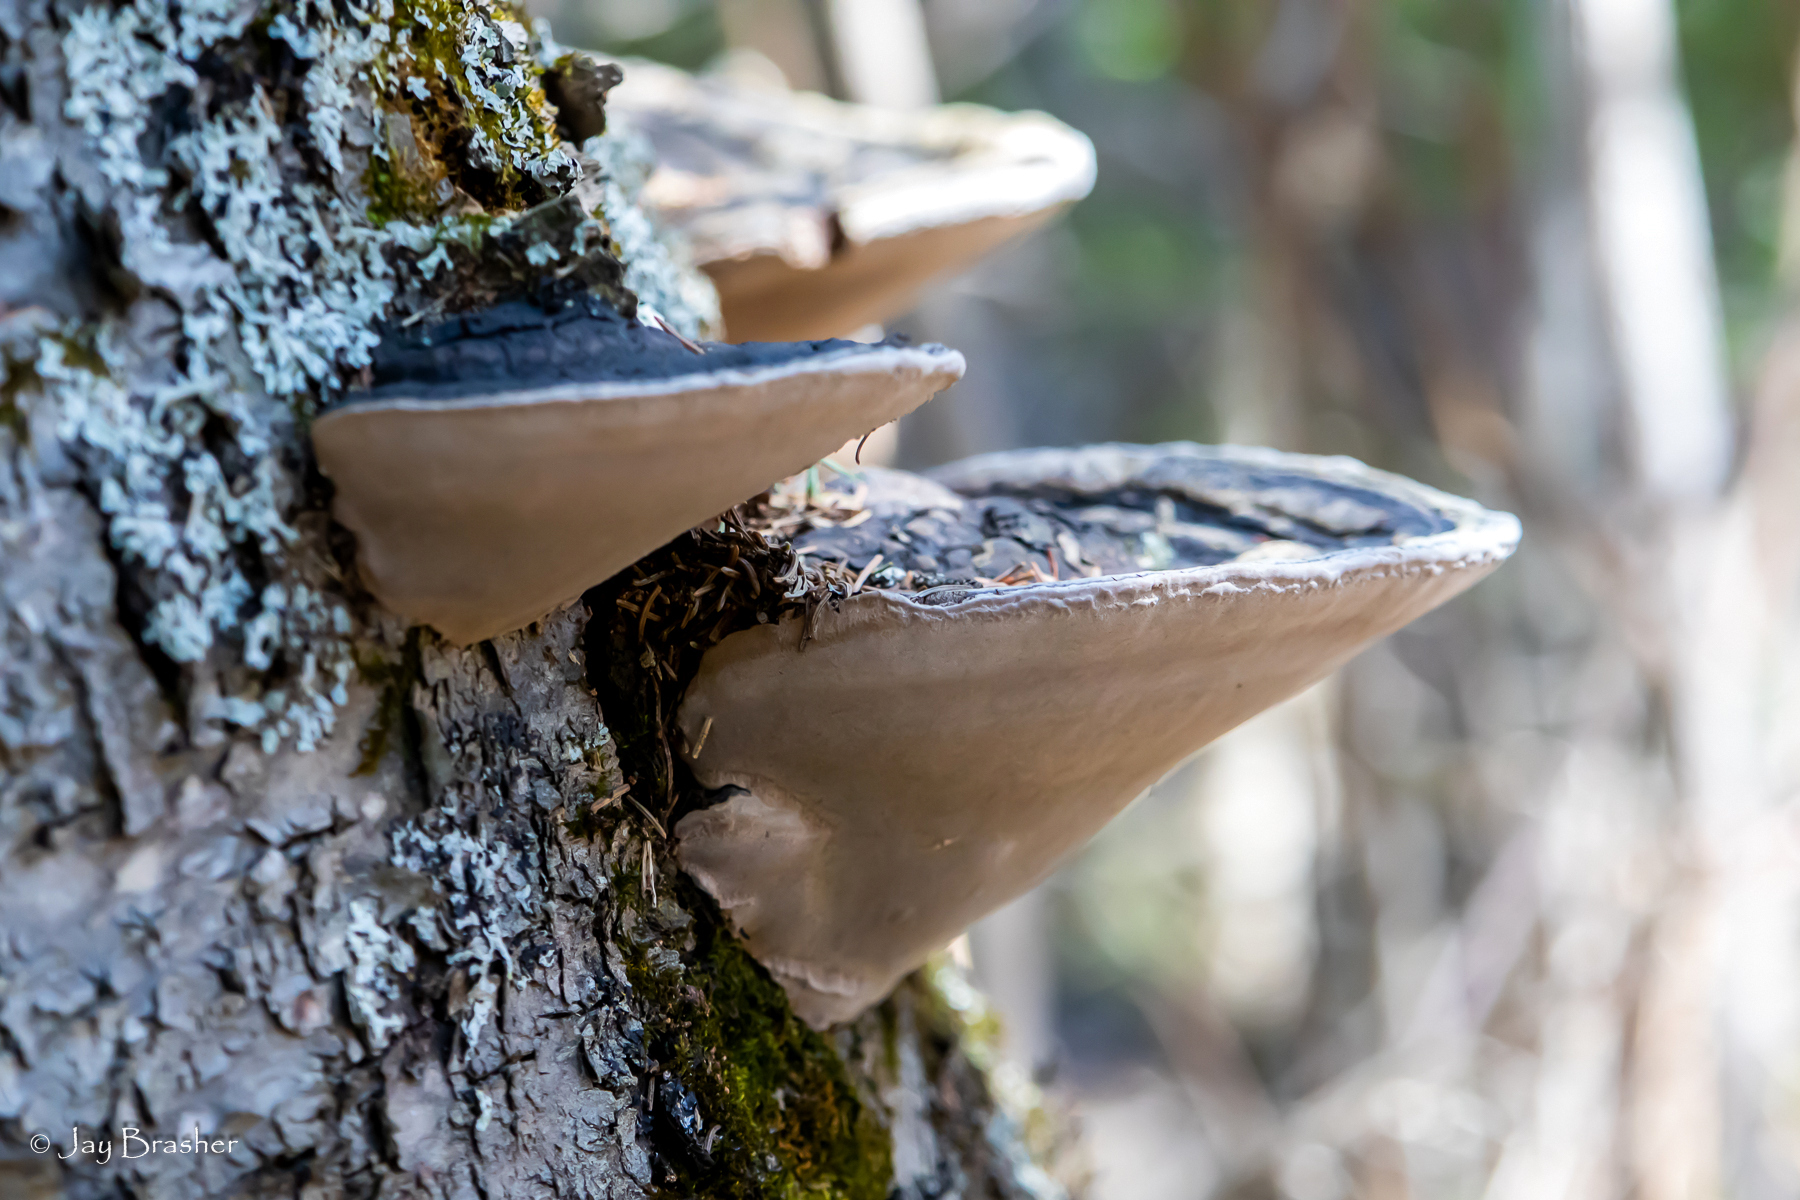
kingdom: Fungi
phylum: Basidiomycota
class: Agaricomycetes
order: Hymenochaetales
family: Hymenochaetaceae
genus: Phellinus
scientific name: Phellinus igniarius
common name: Willow bracket
